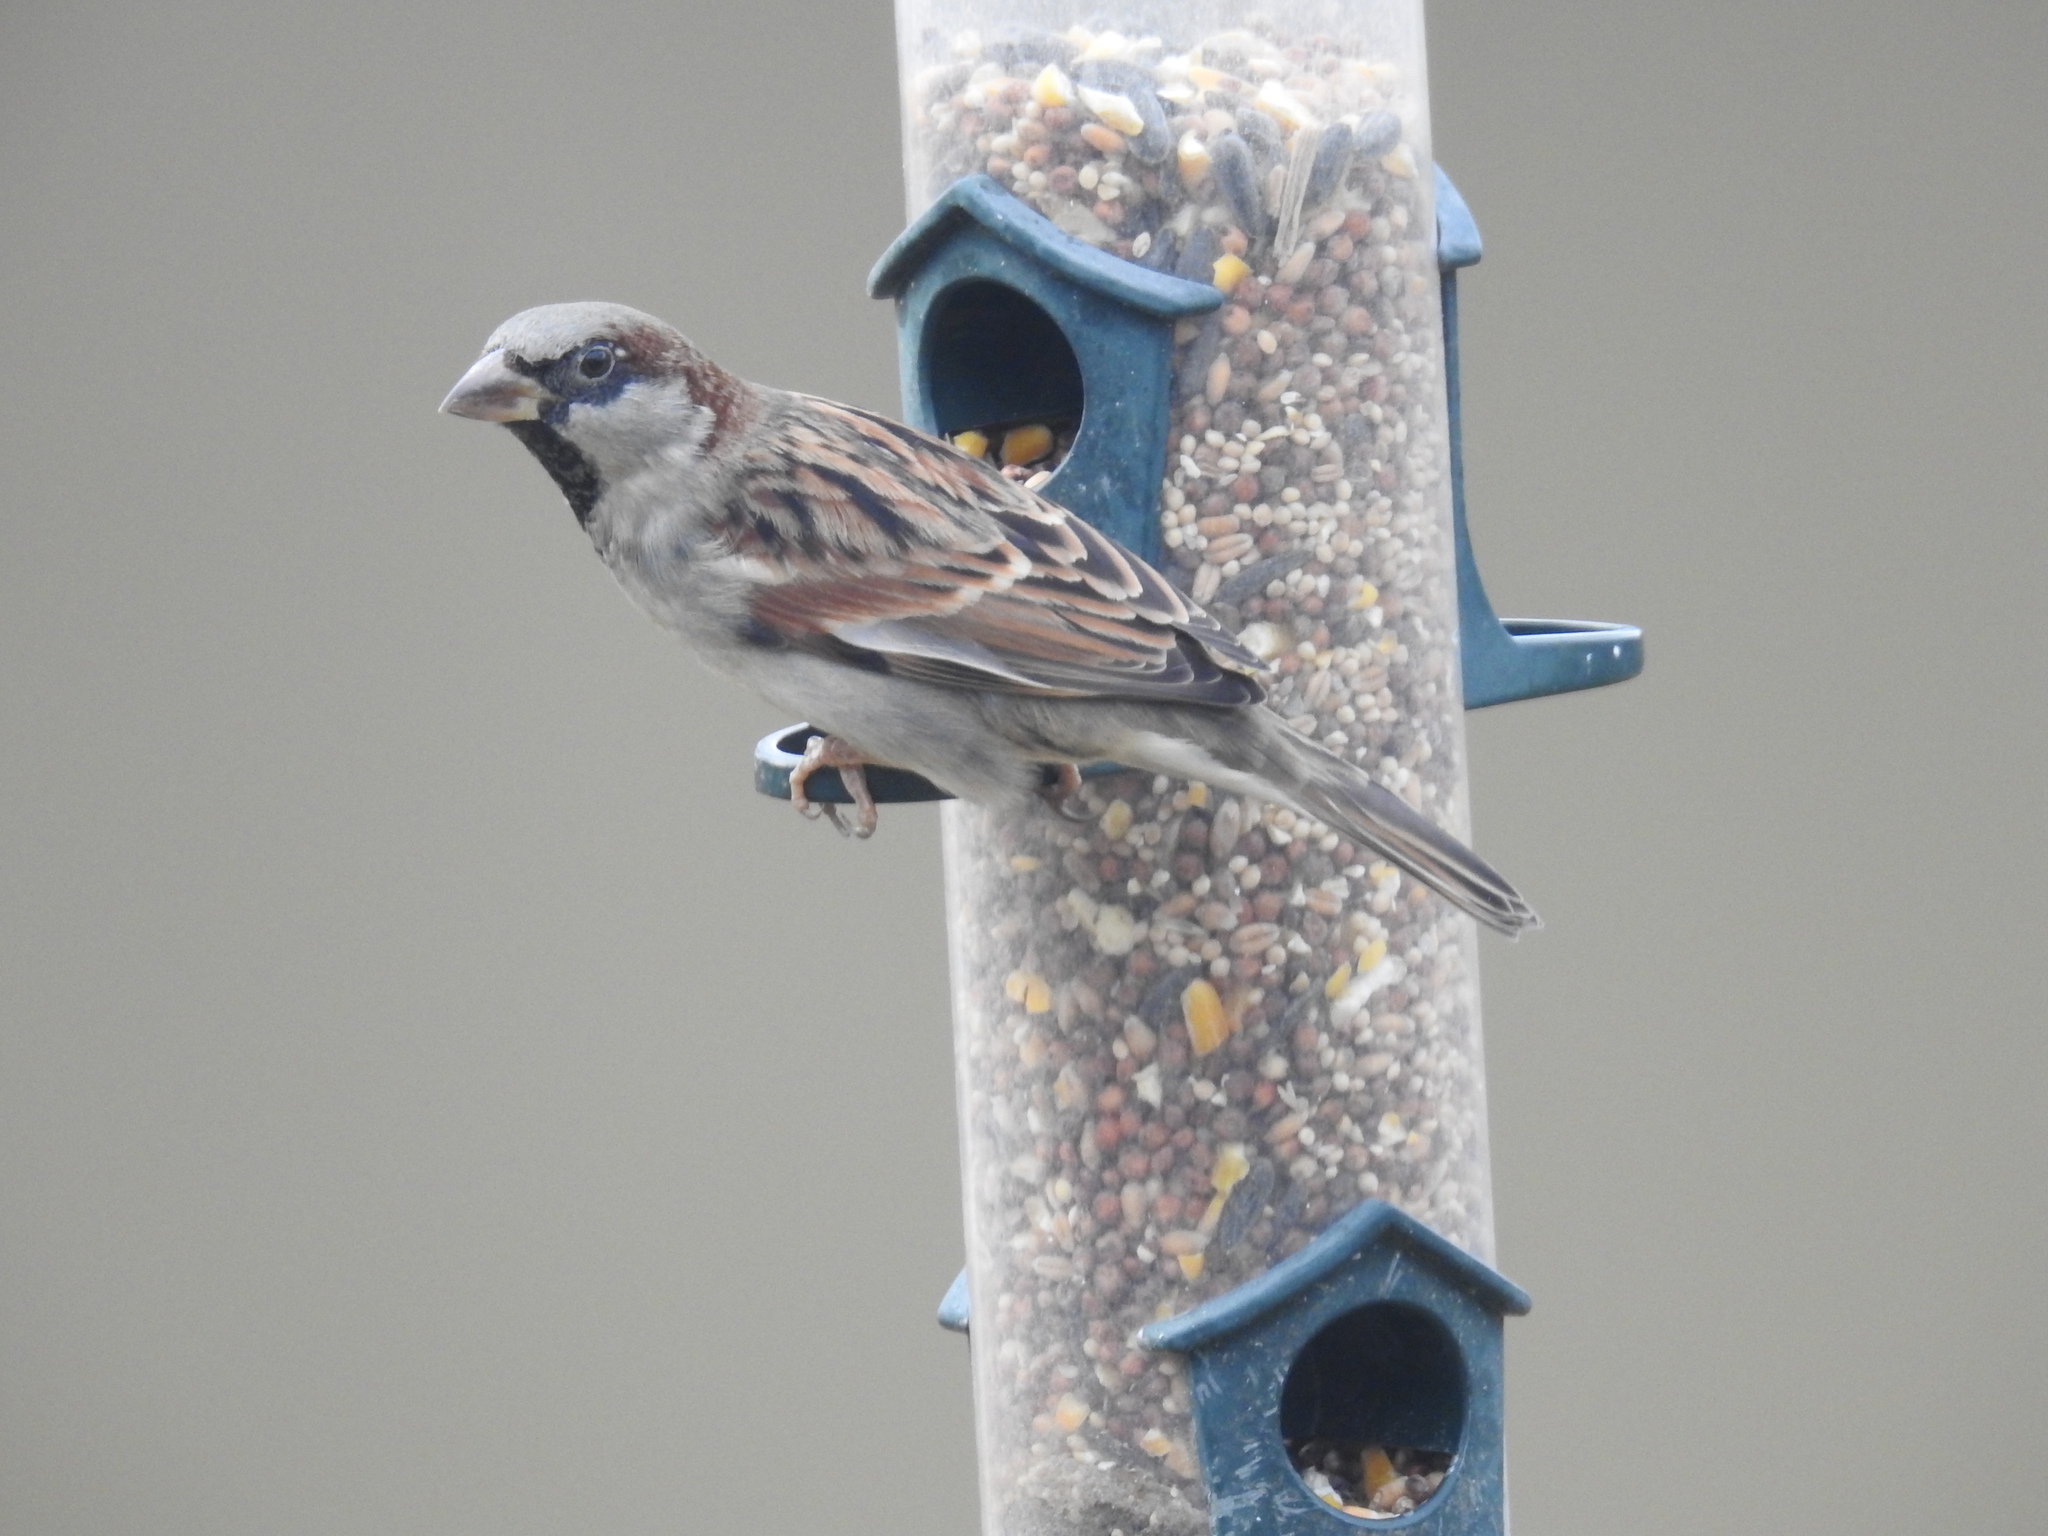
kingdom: Animalia
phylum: Chordata
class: Aves
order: Passeriformes
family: Passeridae
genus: Passer
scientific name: Passer domesticus
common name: House sparrow
